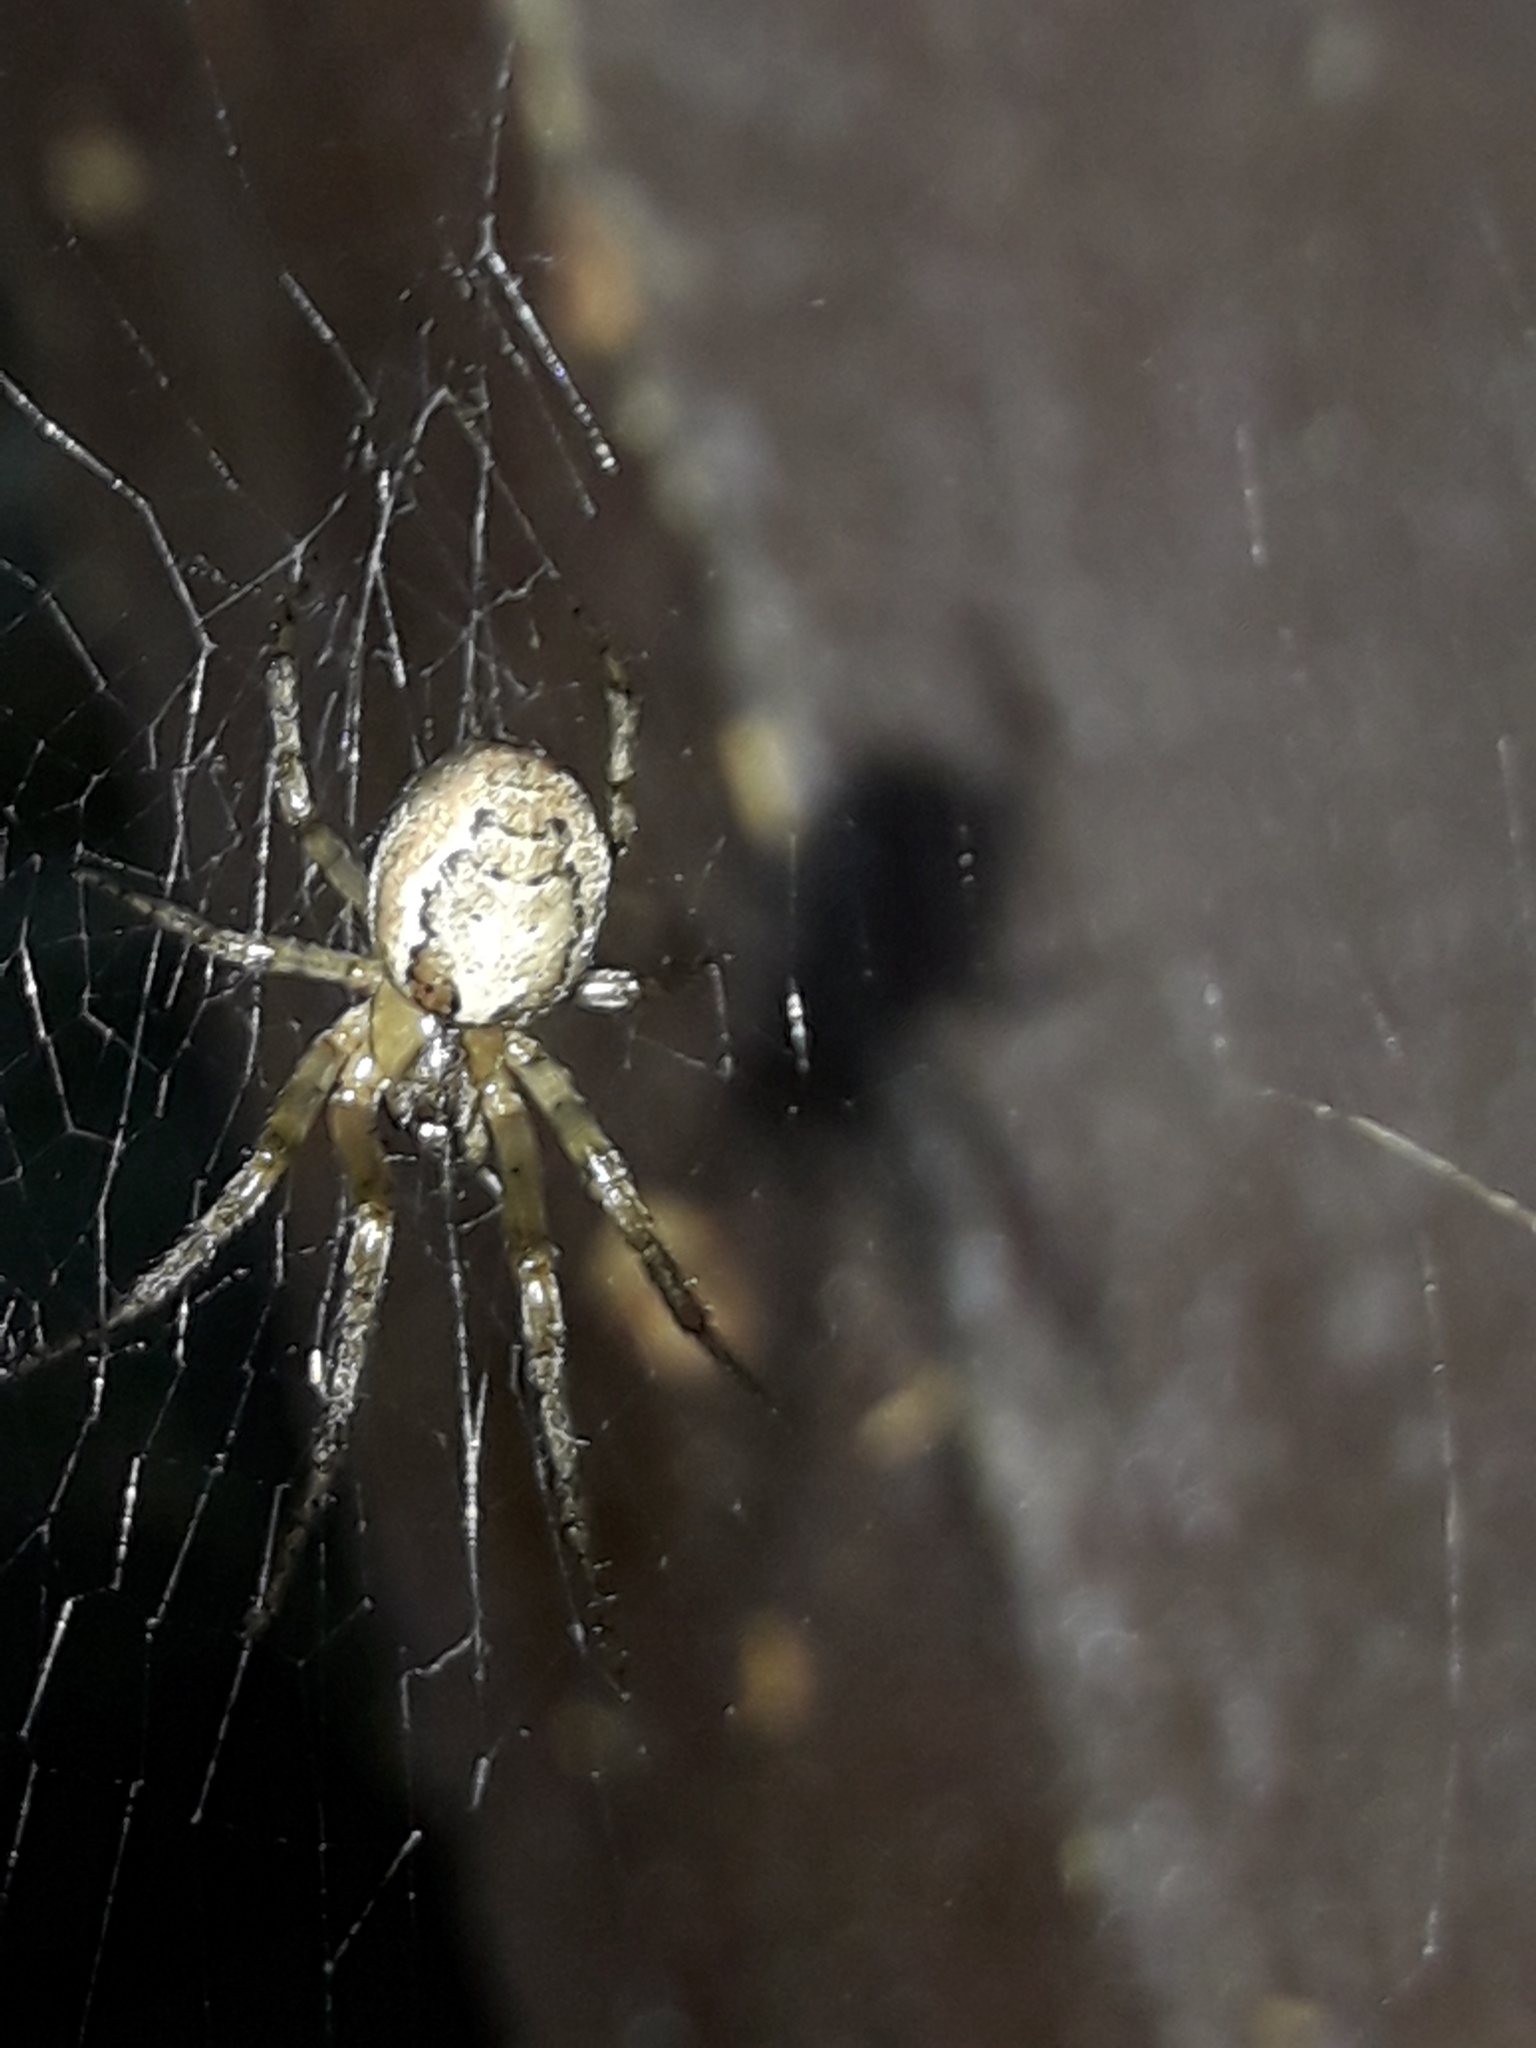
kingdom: Animalia
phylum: Arthropoda
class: Arachnida
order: Araneae
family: Araneidae
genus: Zygiella
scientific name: Zygiella x-notata
